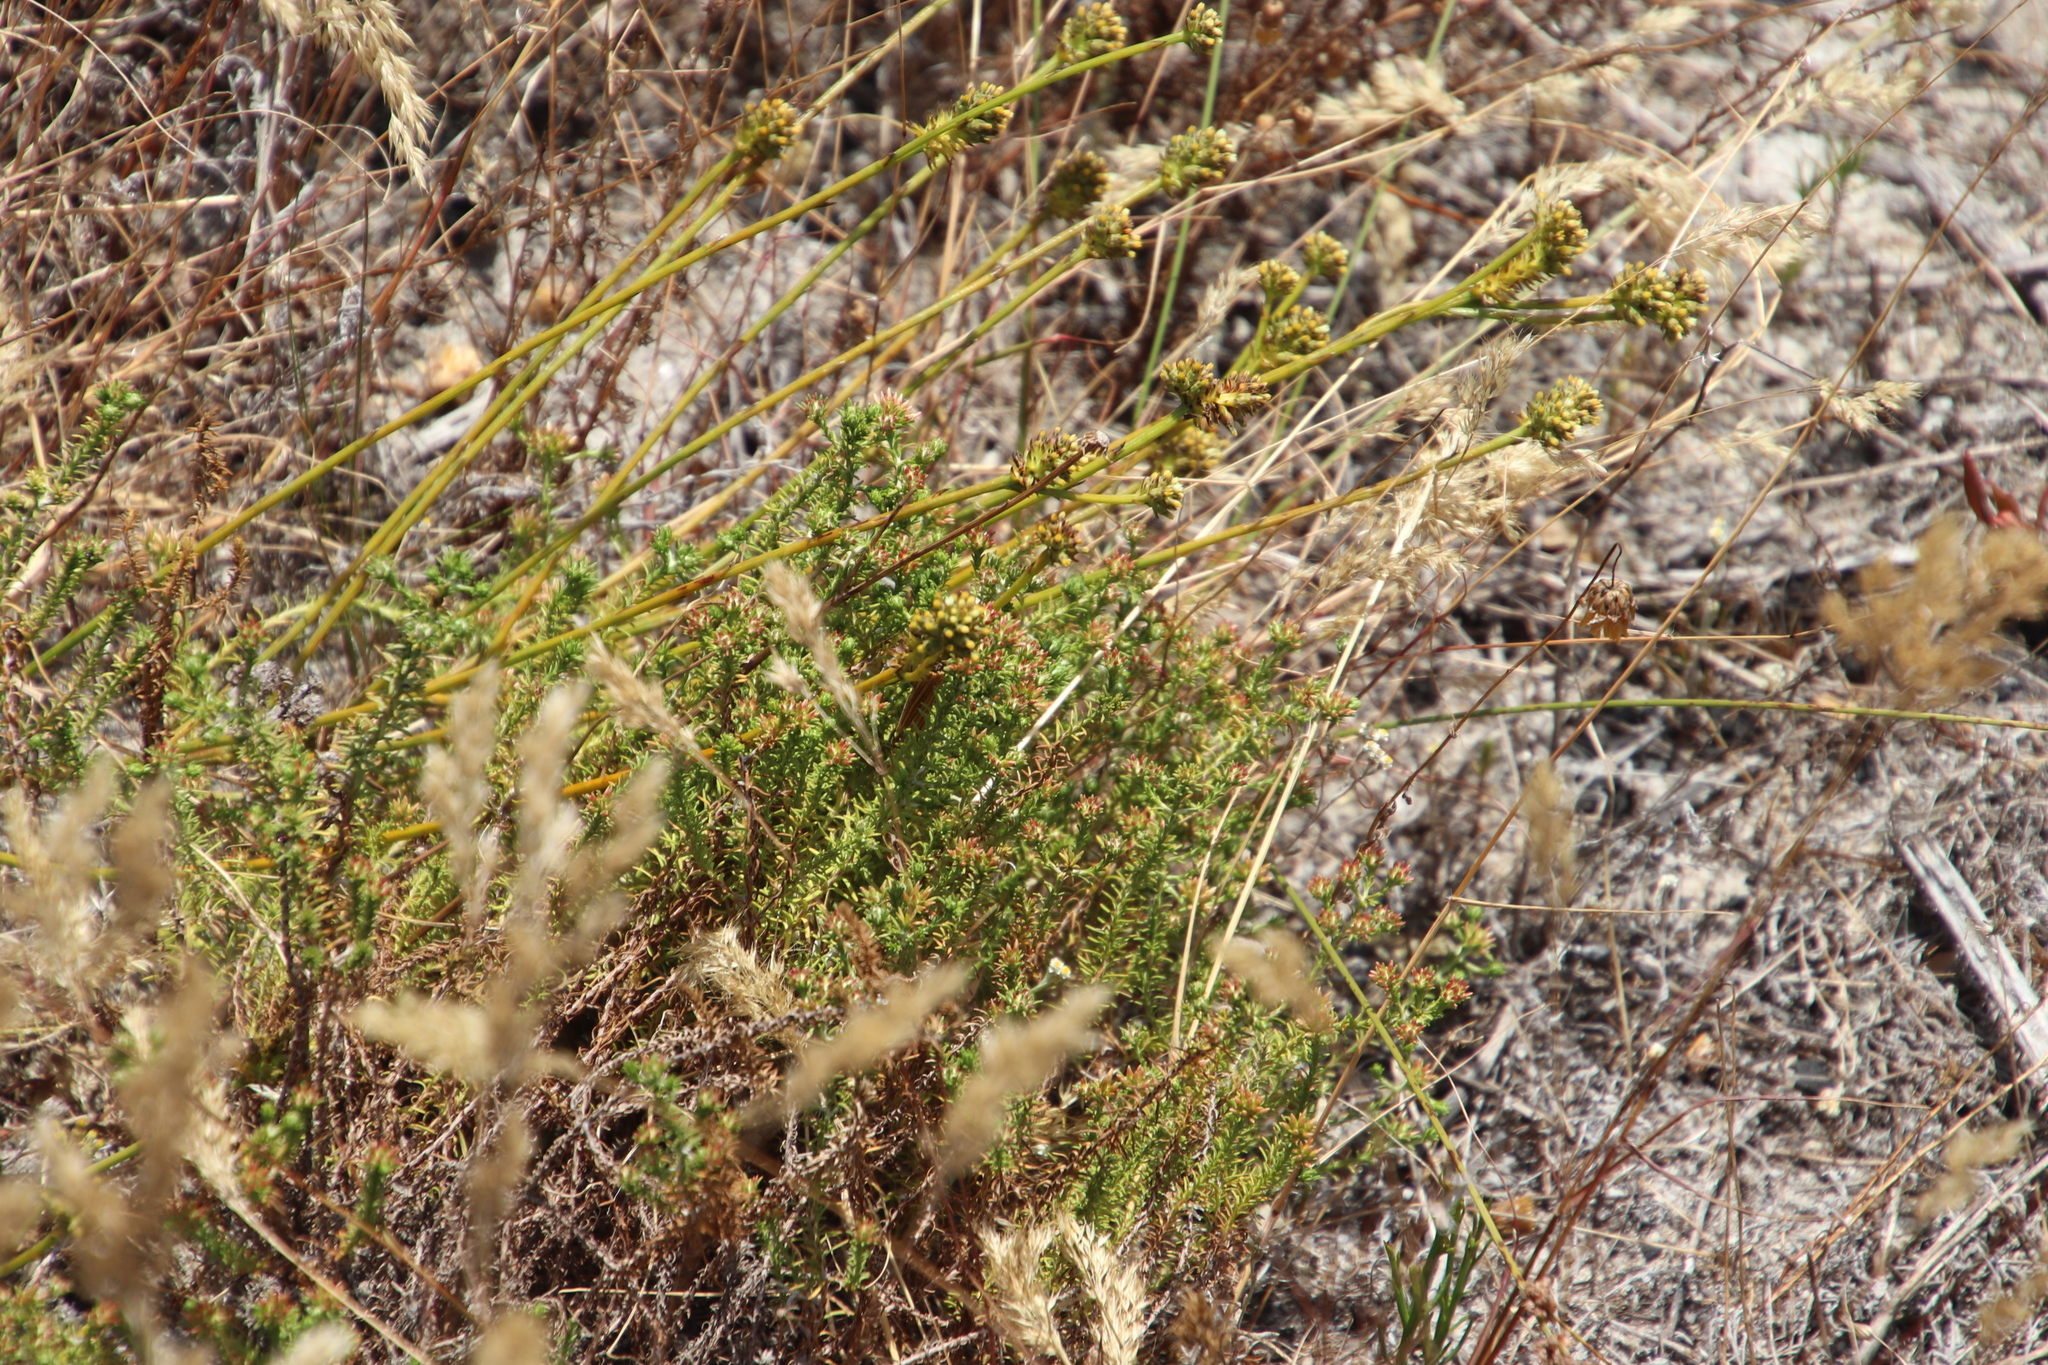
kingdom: Plantae
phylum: Tracheophyta
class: Magnoliopsida
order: Santalales
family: Thesiaceae
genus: Thesium
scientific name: Thesium aggregatum
